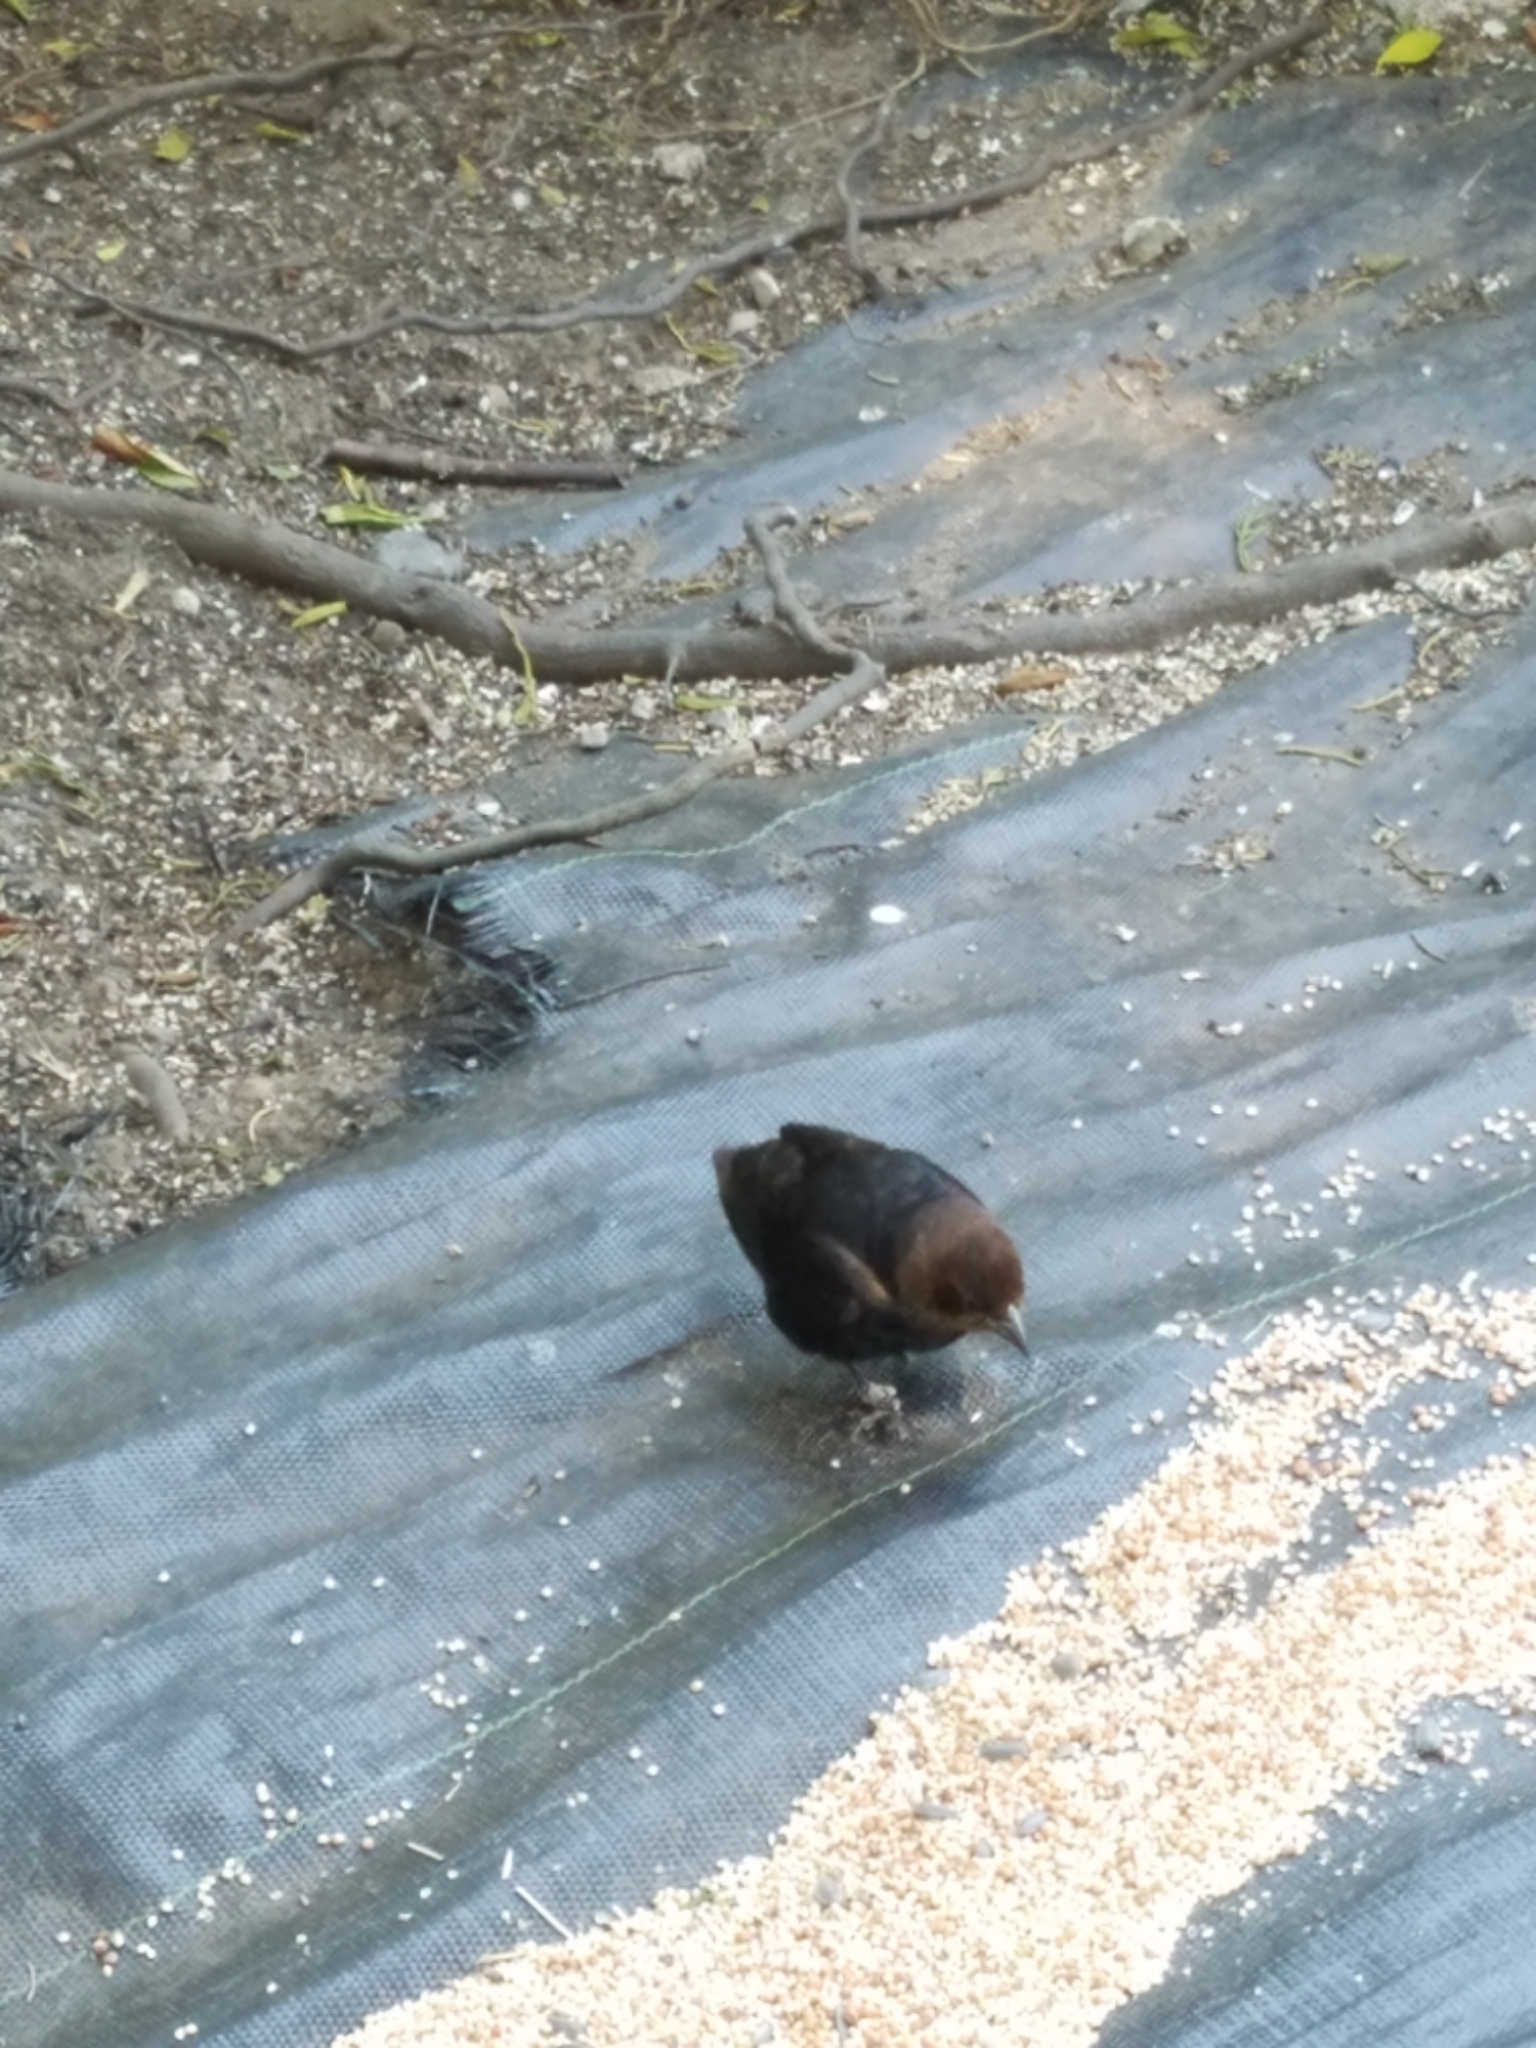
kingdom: Animalia
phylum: Chordata
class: Aves
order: Passeriformes
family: Icteridae
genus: Molothrus
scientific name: Molothrus ater
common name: Brown-headed cowbird
